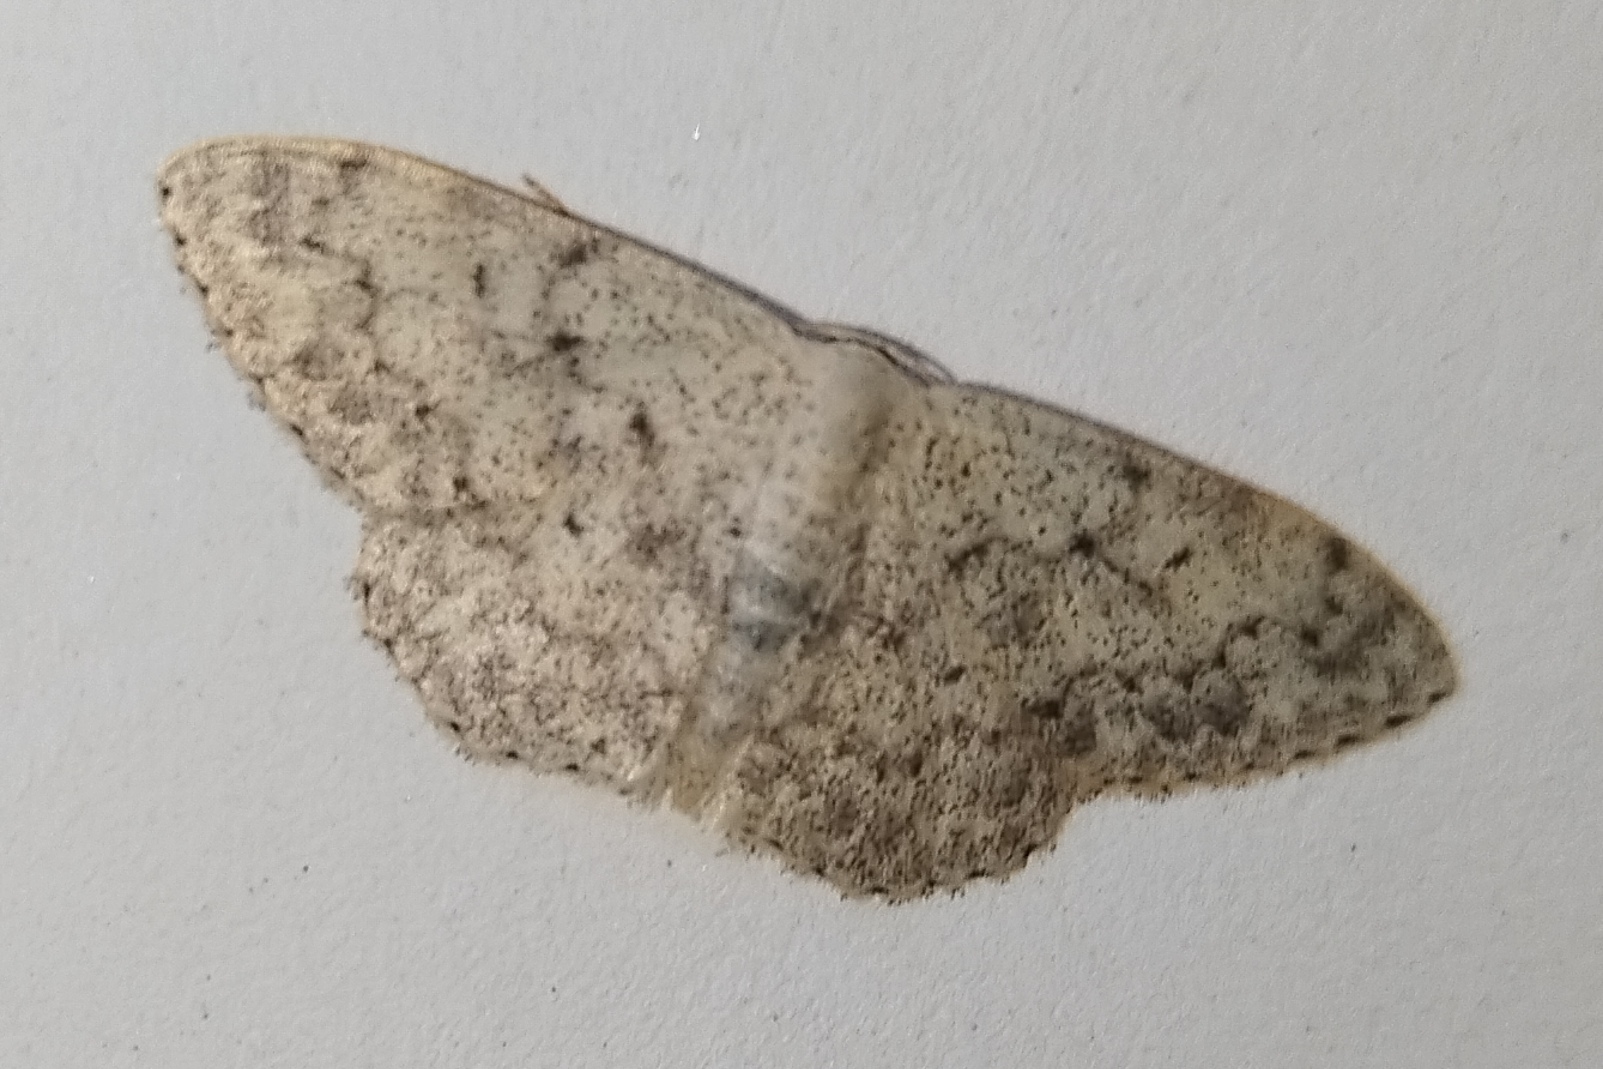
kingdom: Animalia
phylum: Arthropoda
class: Insecta
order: Lepidoptera
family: Geometridae
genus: Scopula
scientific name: Scopula marginepunctata
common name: Mullein wave
